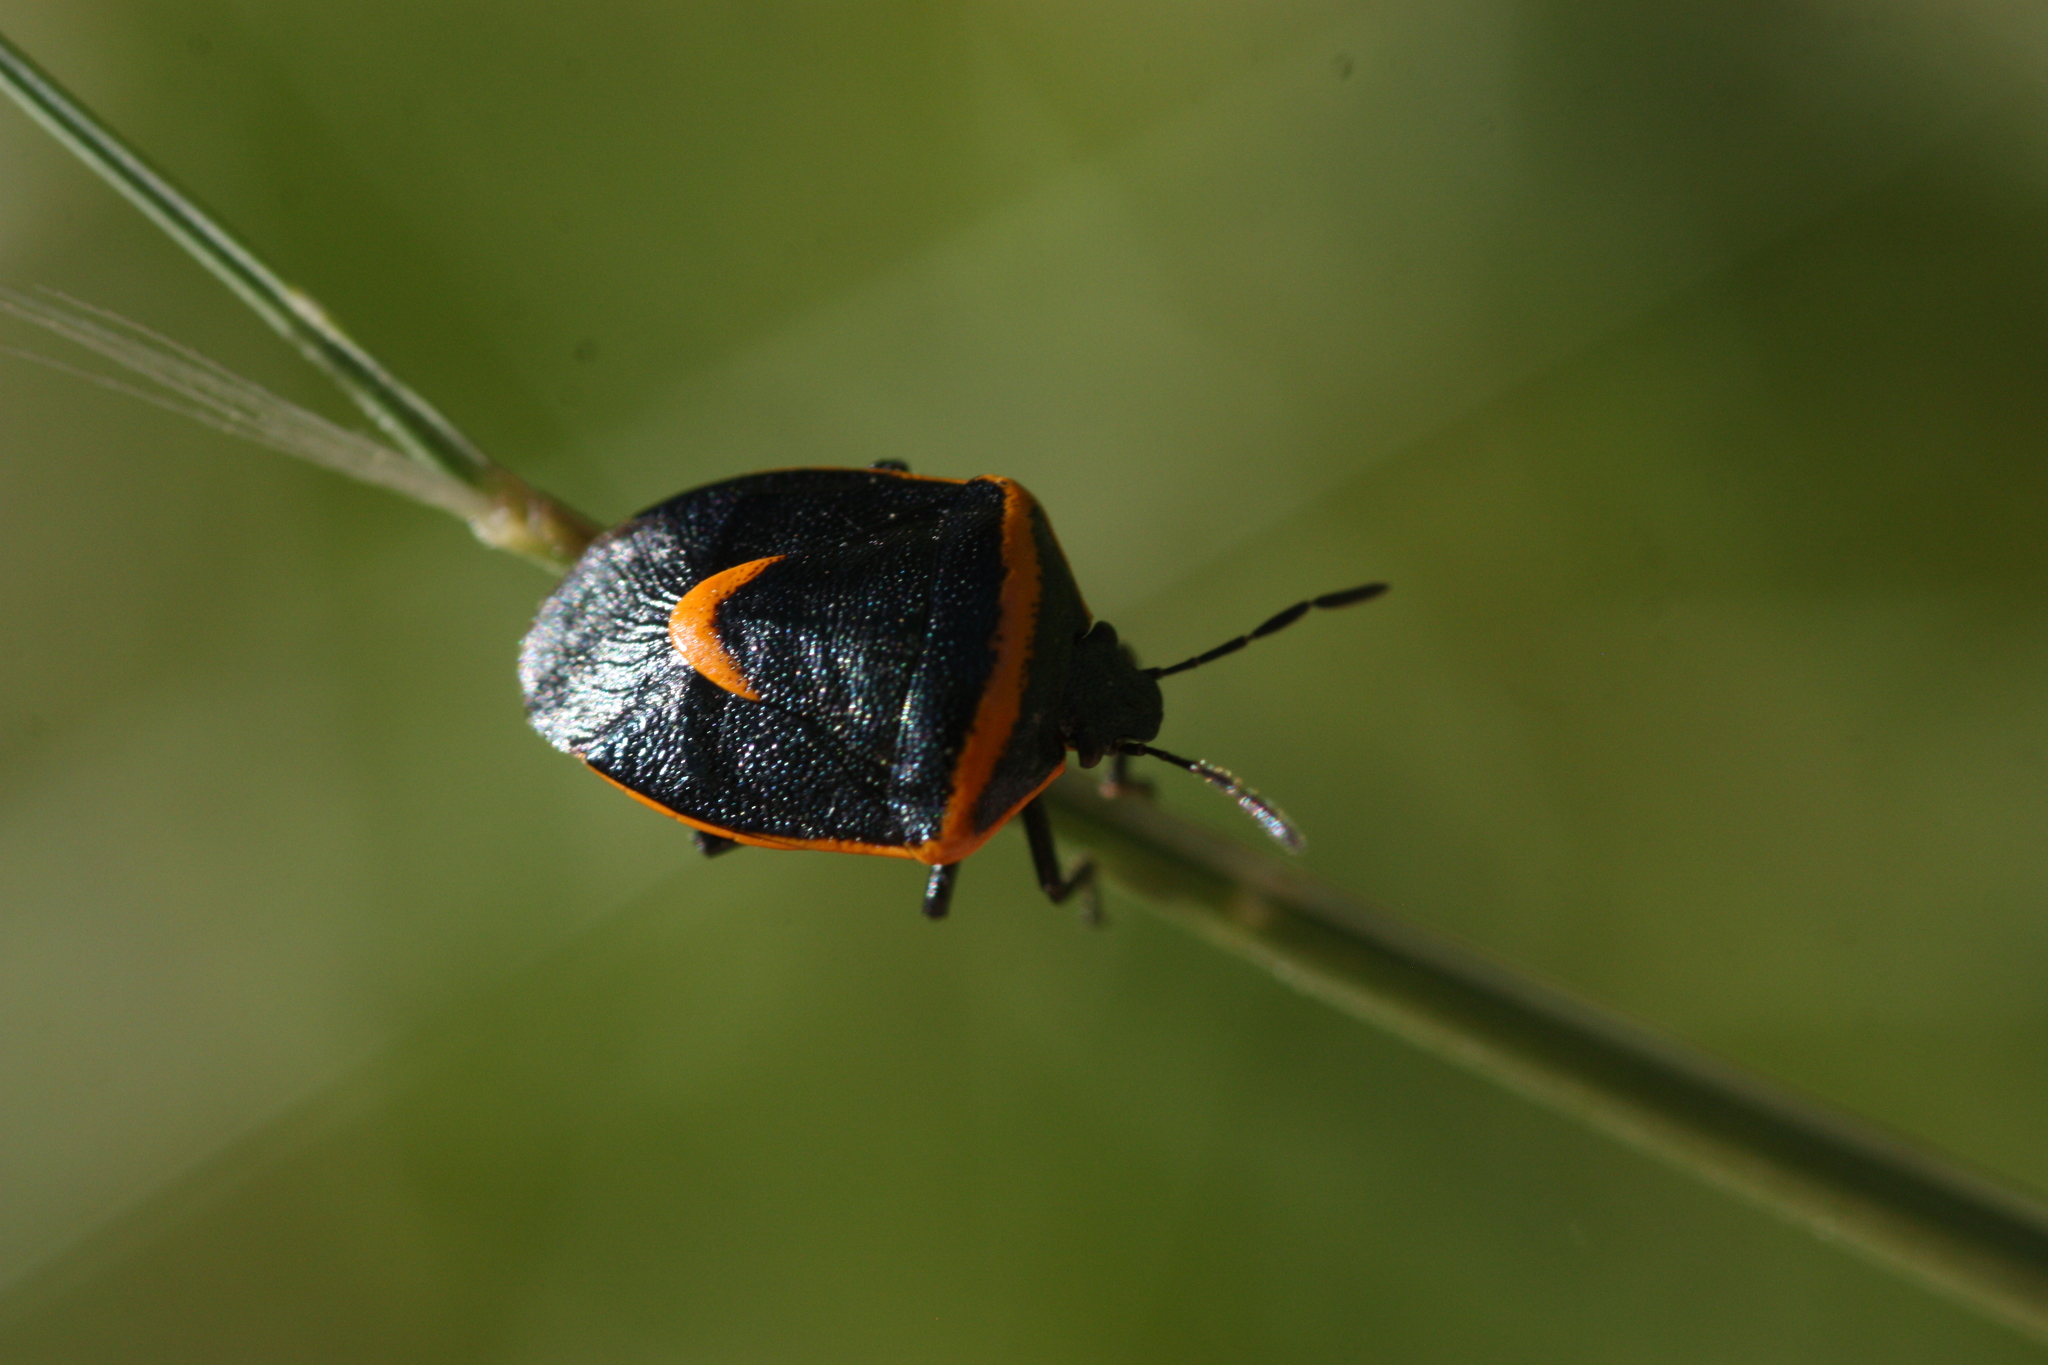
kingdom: Animalia
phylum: Arthropoda
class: Insecta
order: Hemiptera
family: Pentatomidae
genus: Cosmopepla
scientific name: Cosmopepla decorata
